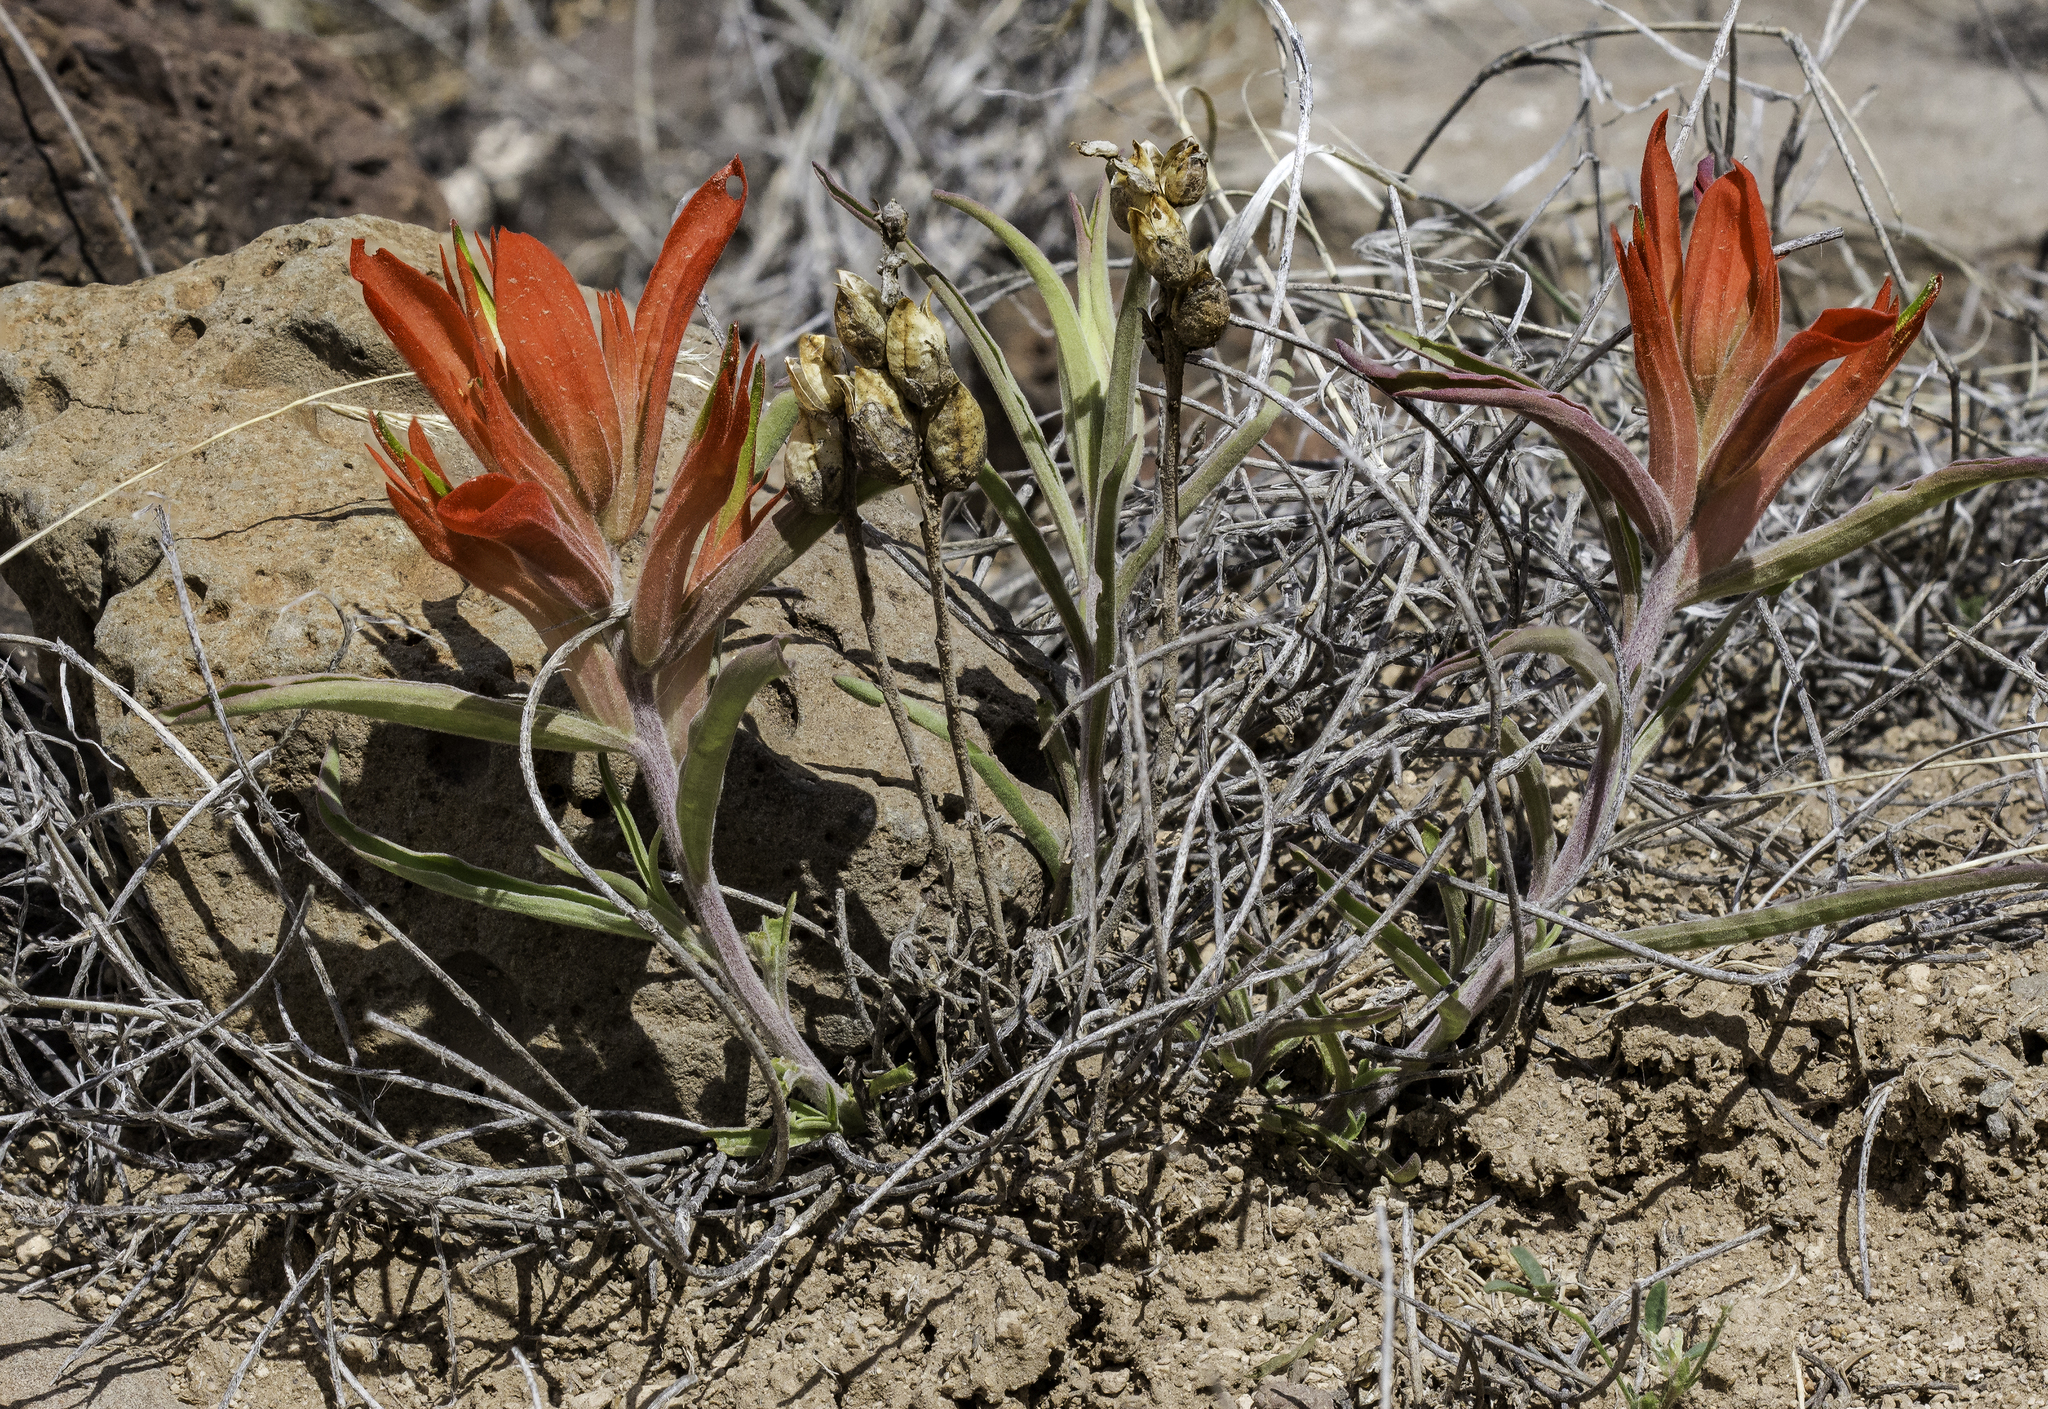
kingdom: Plantae
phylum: Tracheophyta
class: Magnoliopsida
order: Lamiales
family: Orobanchaceae
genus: Castilleja
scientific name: Castilleja integra
